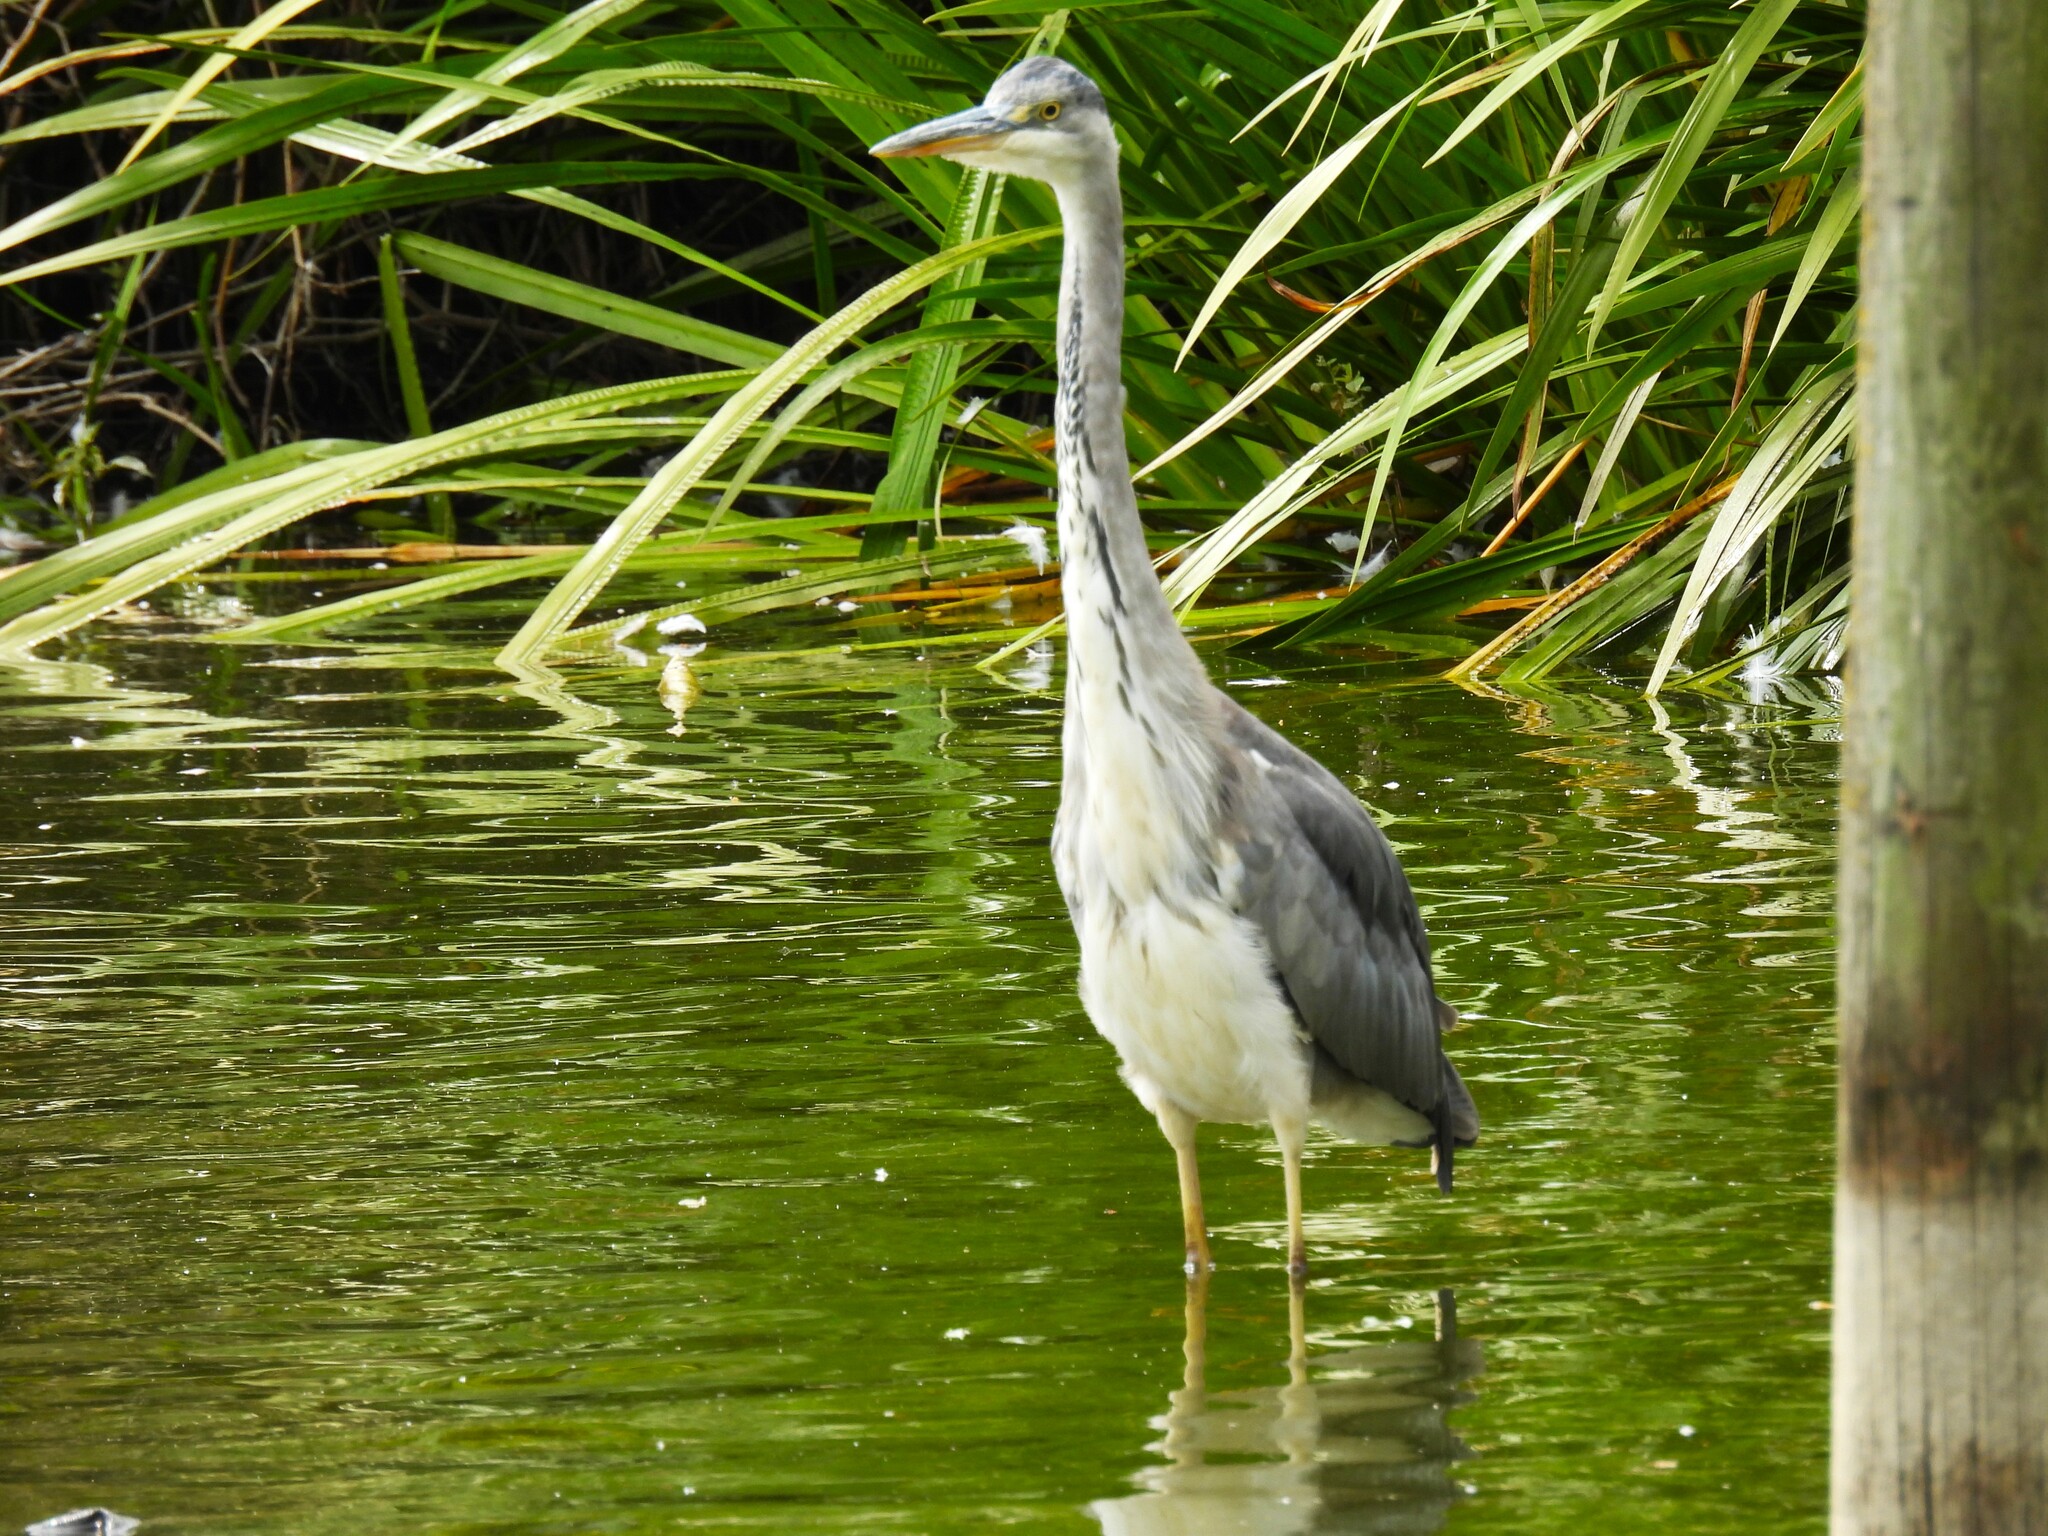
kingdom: Animalia
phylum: Chordata
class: Aves
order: Pelecaniformes
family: Ardeidae
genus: Ardea
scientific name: Ardea cinerea
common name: Grey heron
